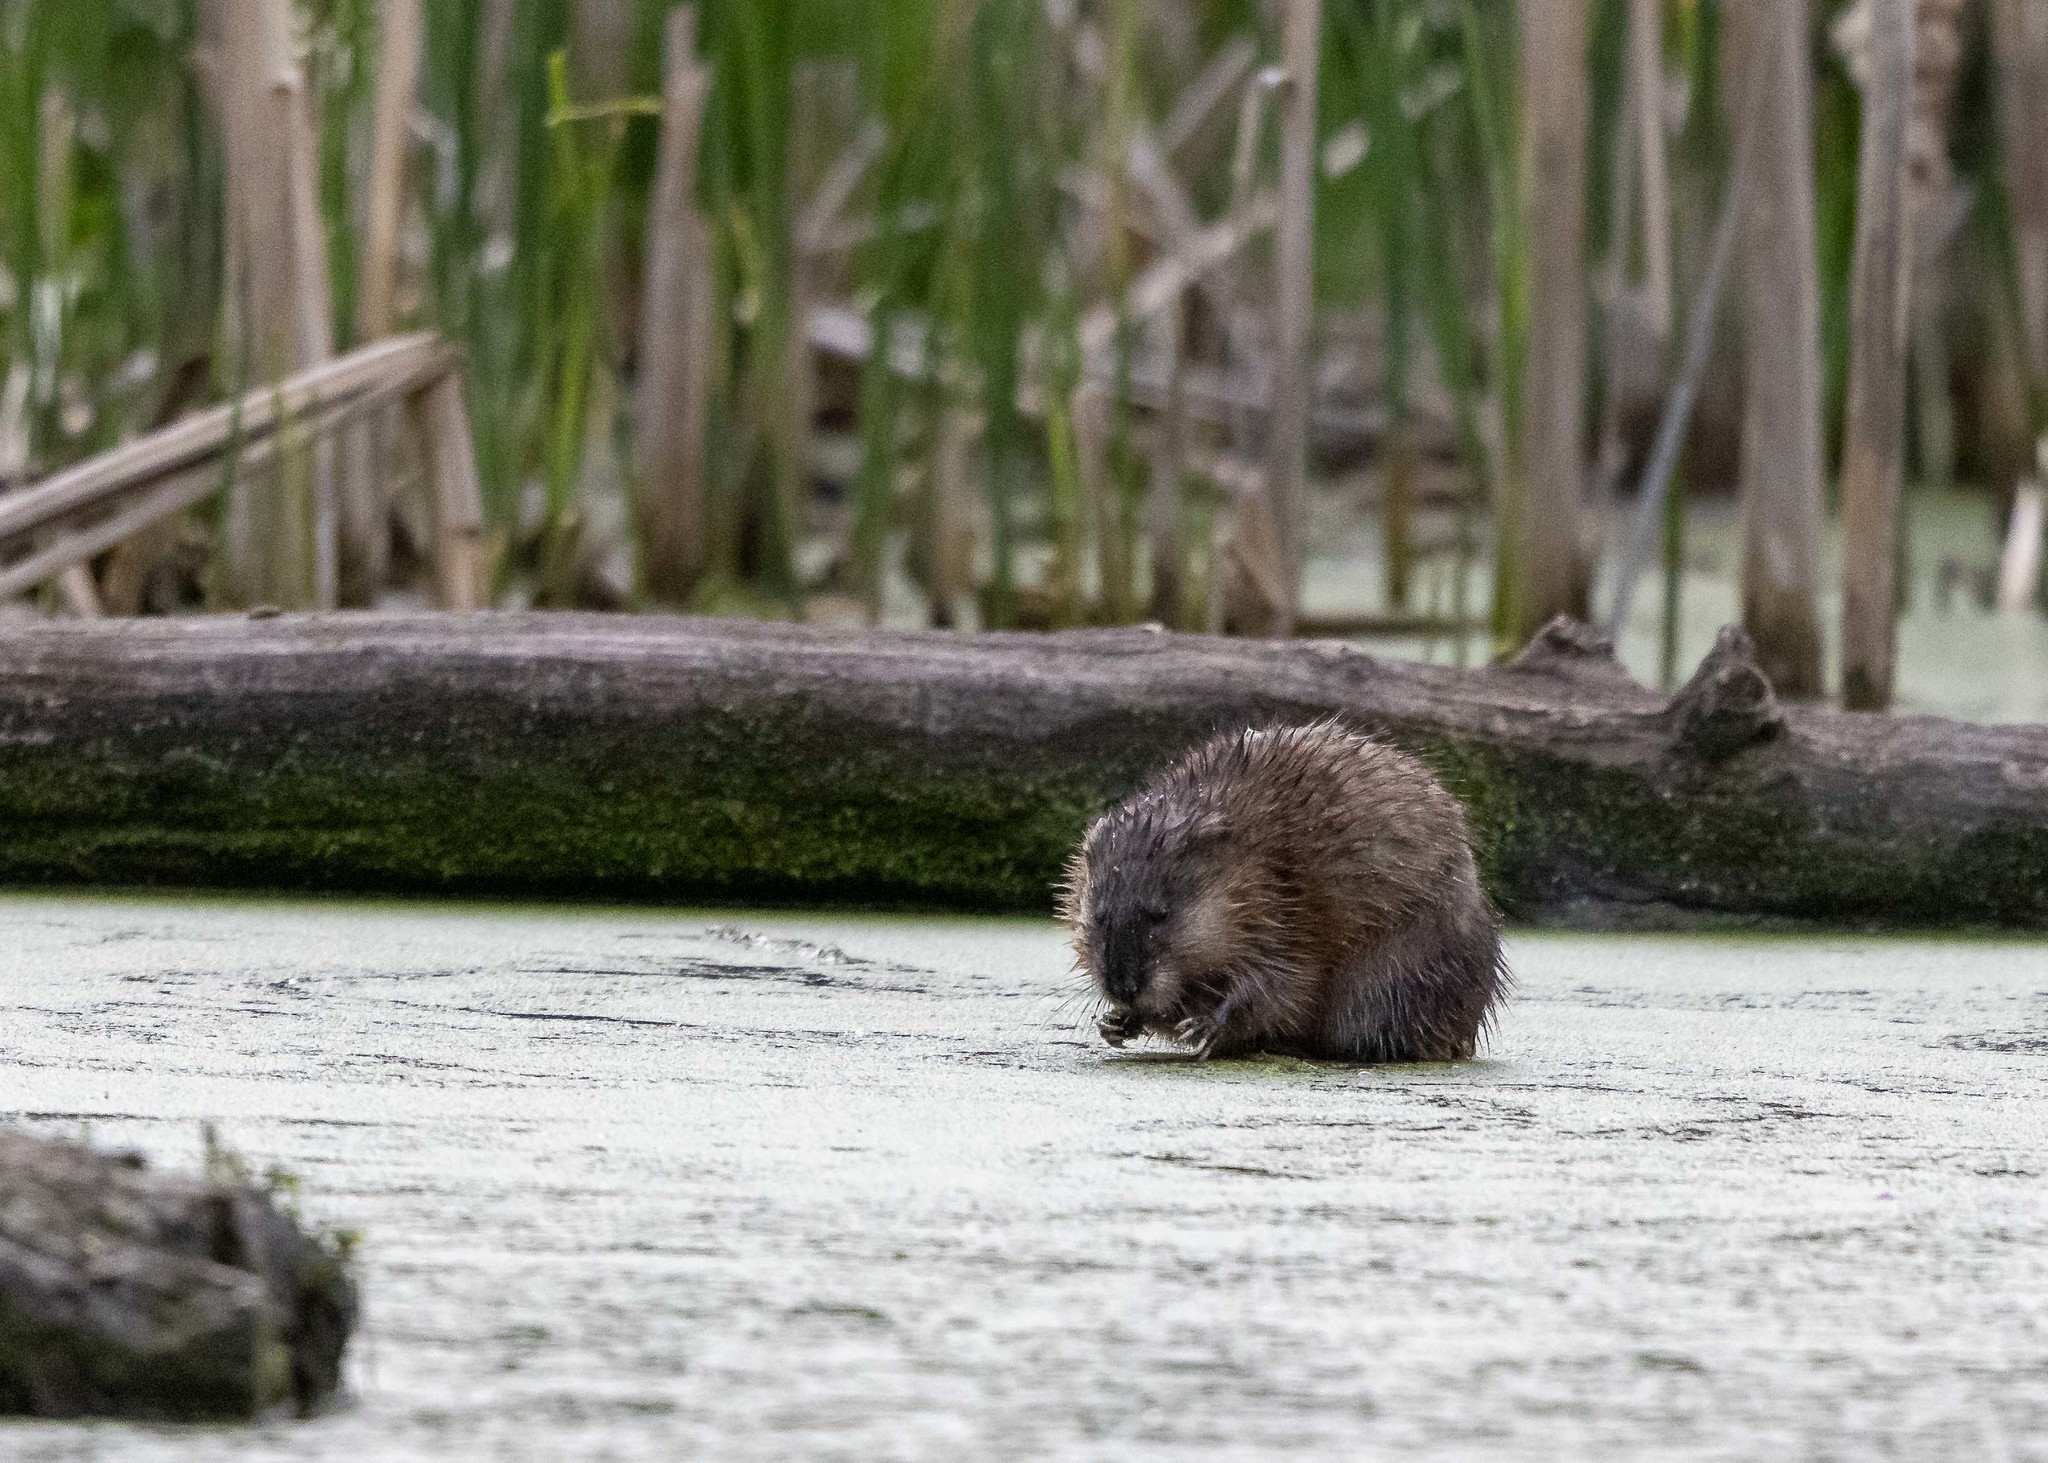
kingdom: Animalia
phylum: Chordata
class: Mammalia
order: Rodentia
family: Cricetidae
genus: Ondatra
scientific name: Ondatra zibethicus
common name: Muskrat
